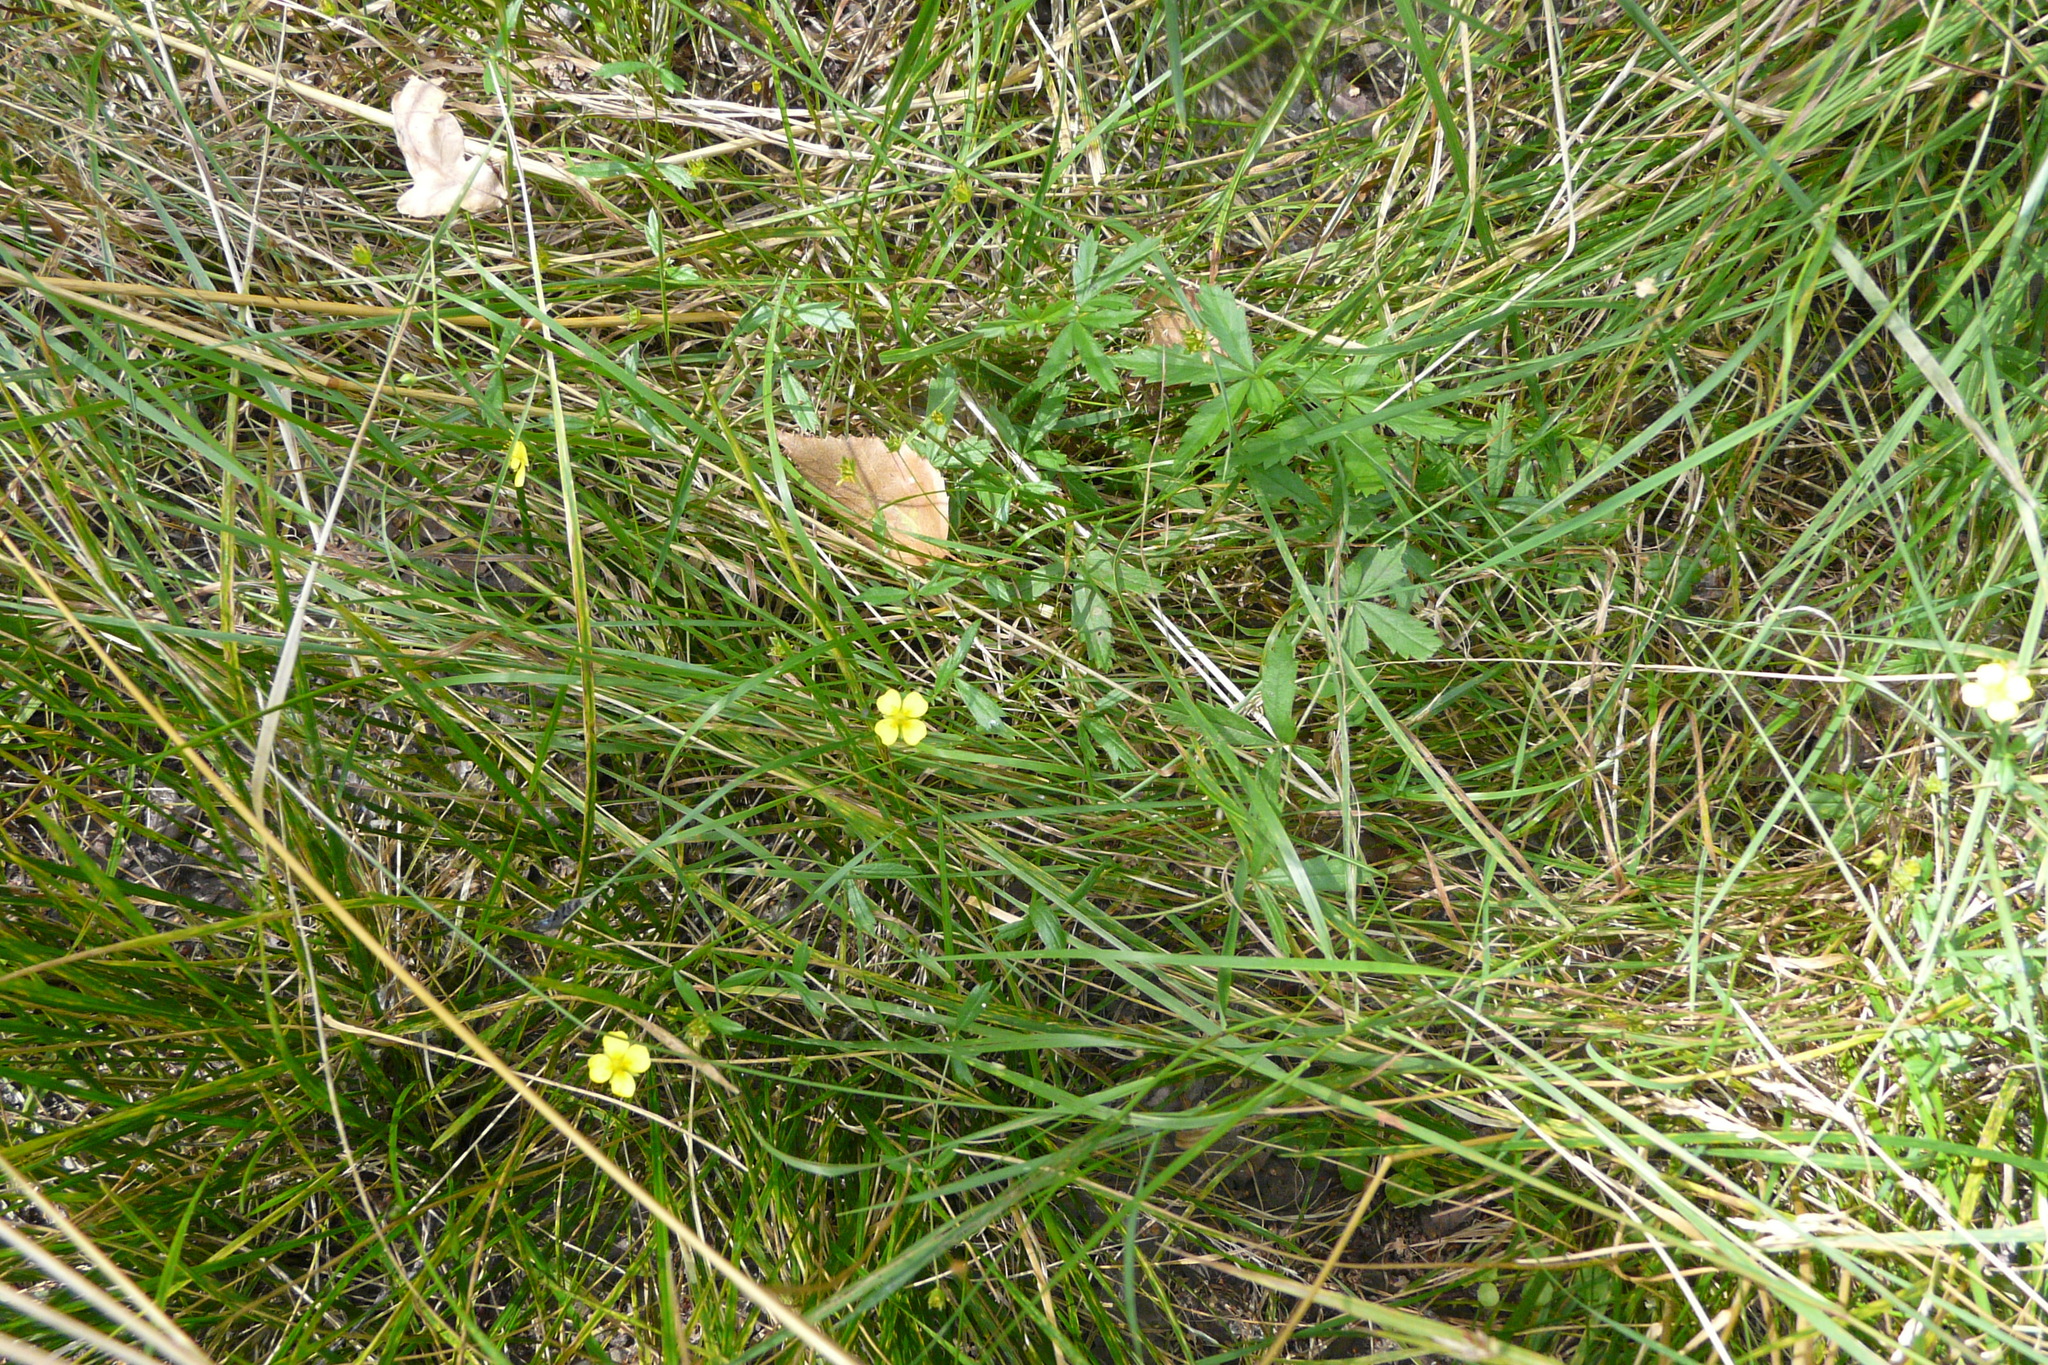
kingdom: Plantae
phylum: Tracheophyta
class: Magnoliopsida
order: Rosales
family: Rosaceae
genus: Potentilla
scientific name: Potentilla erecta
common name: Tormentil
